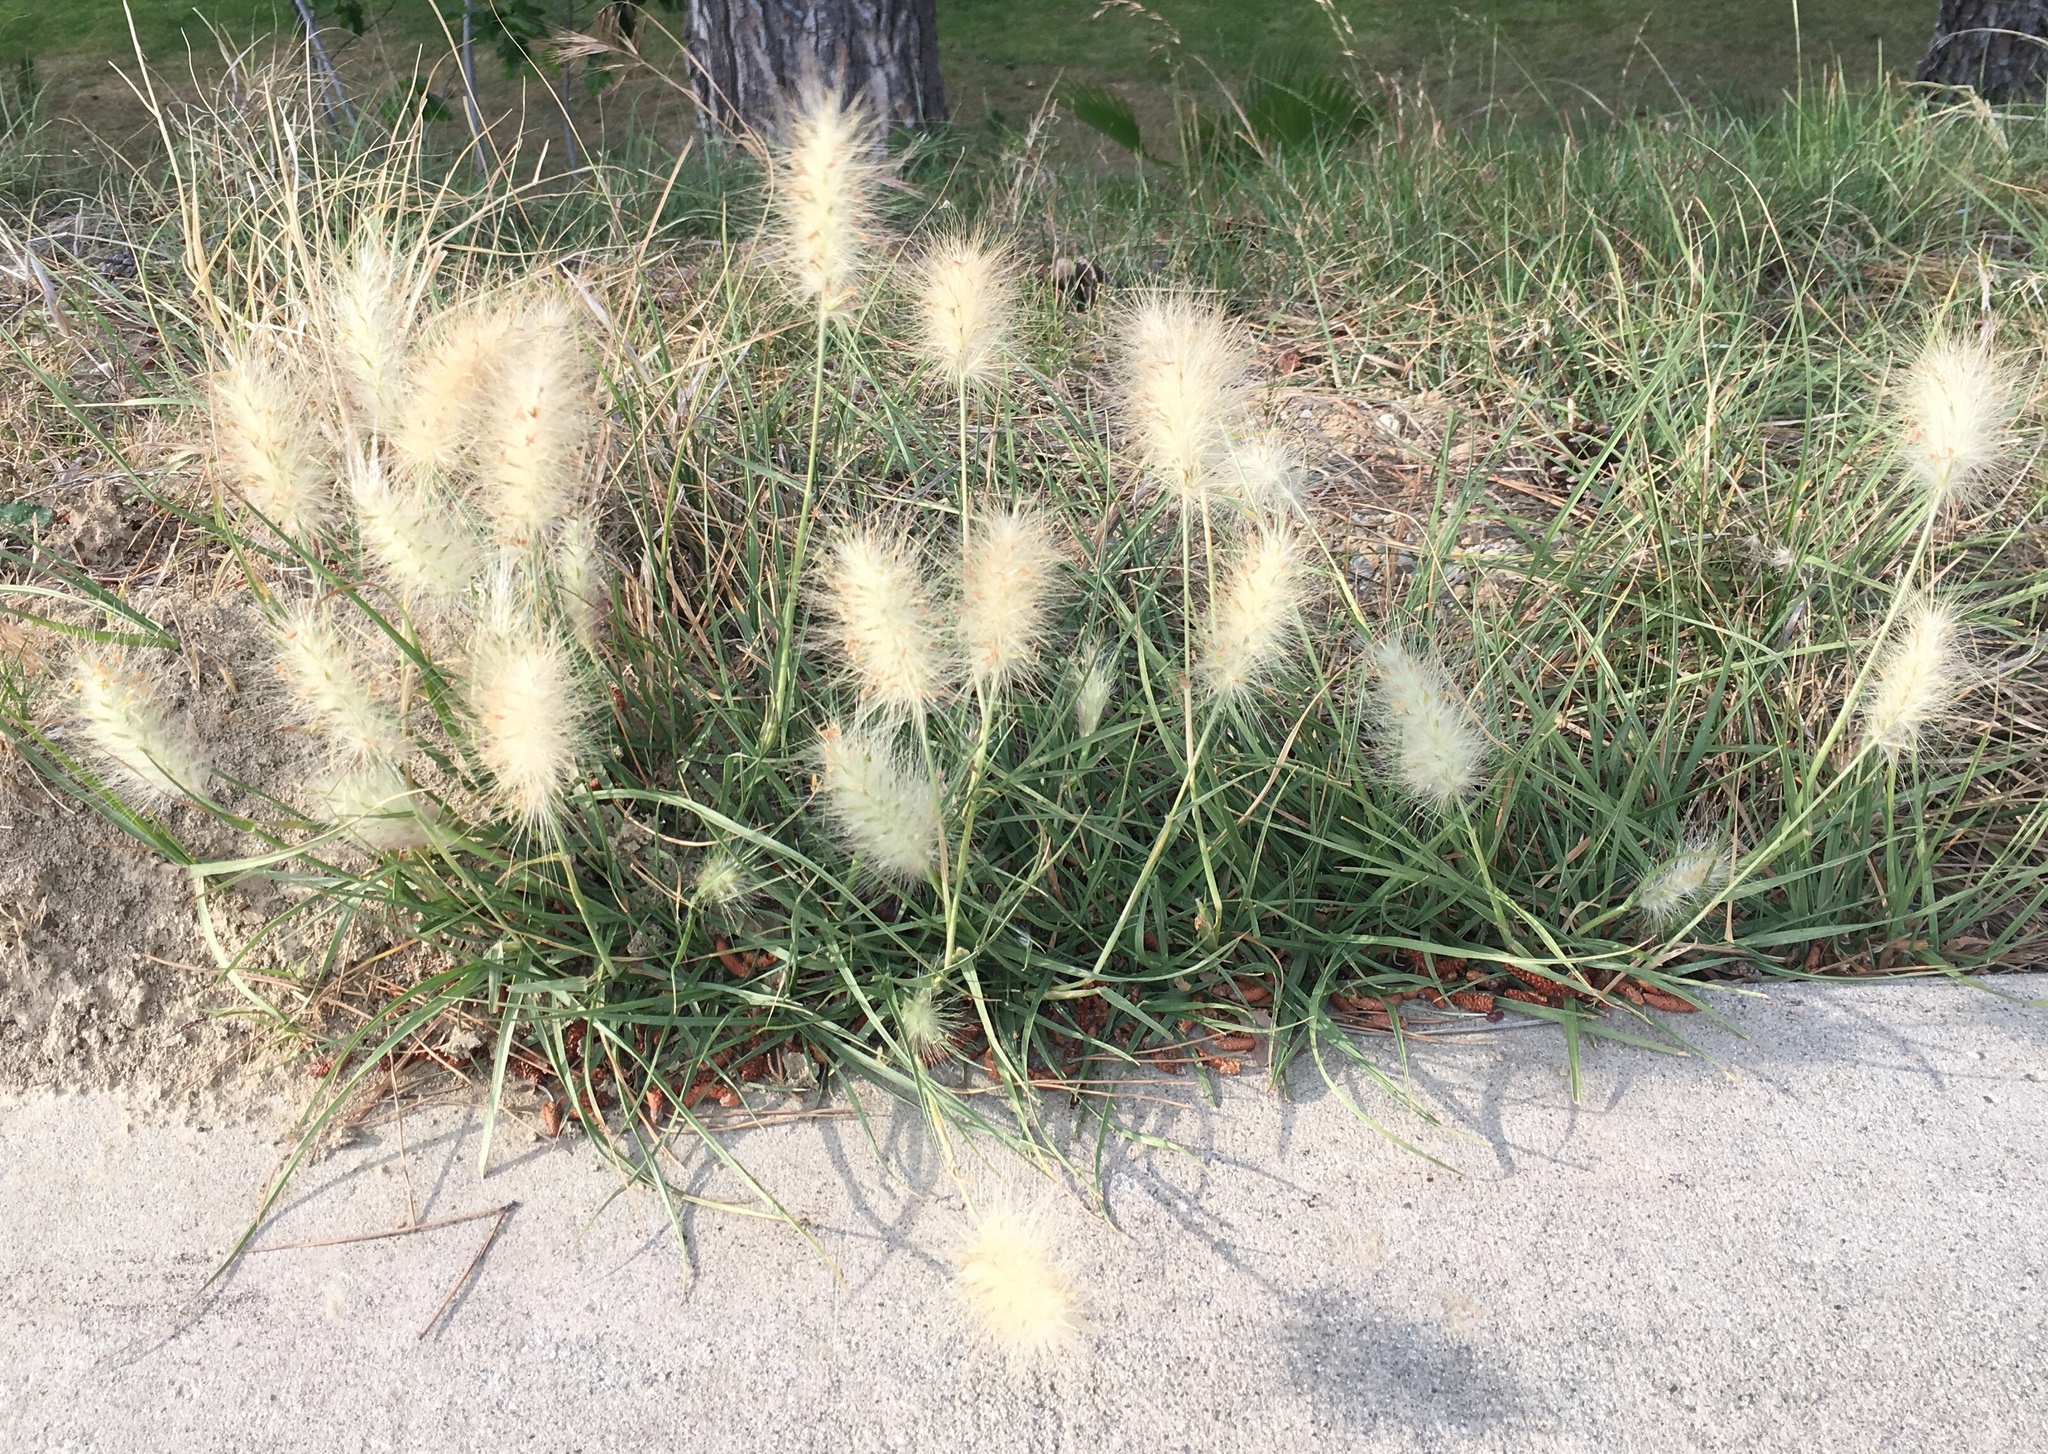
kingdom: Plantae
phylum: Tracheophyta
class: Liliopsida
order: Poales
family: Poaceae
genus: Cenchrus
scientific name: Cenchrus longisetus
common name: Feathertop
